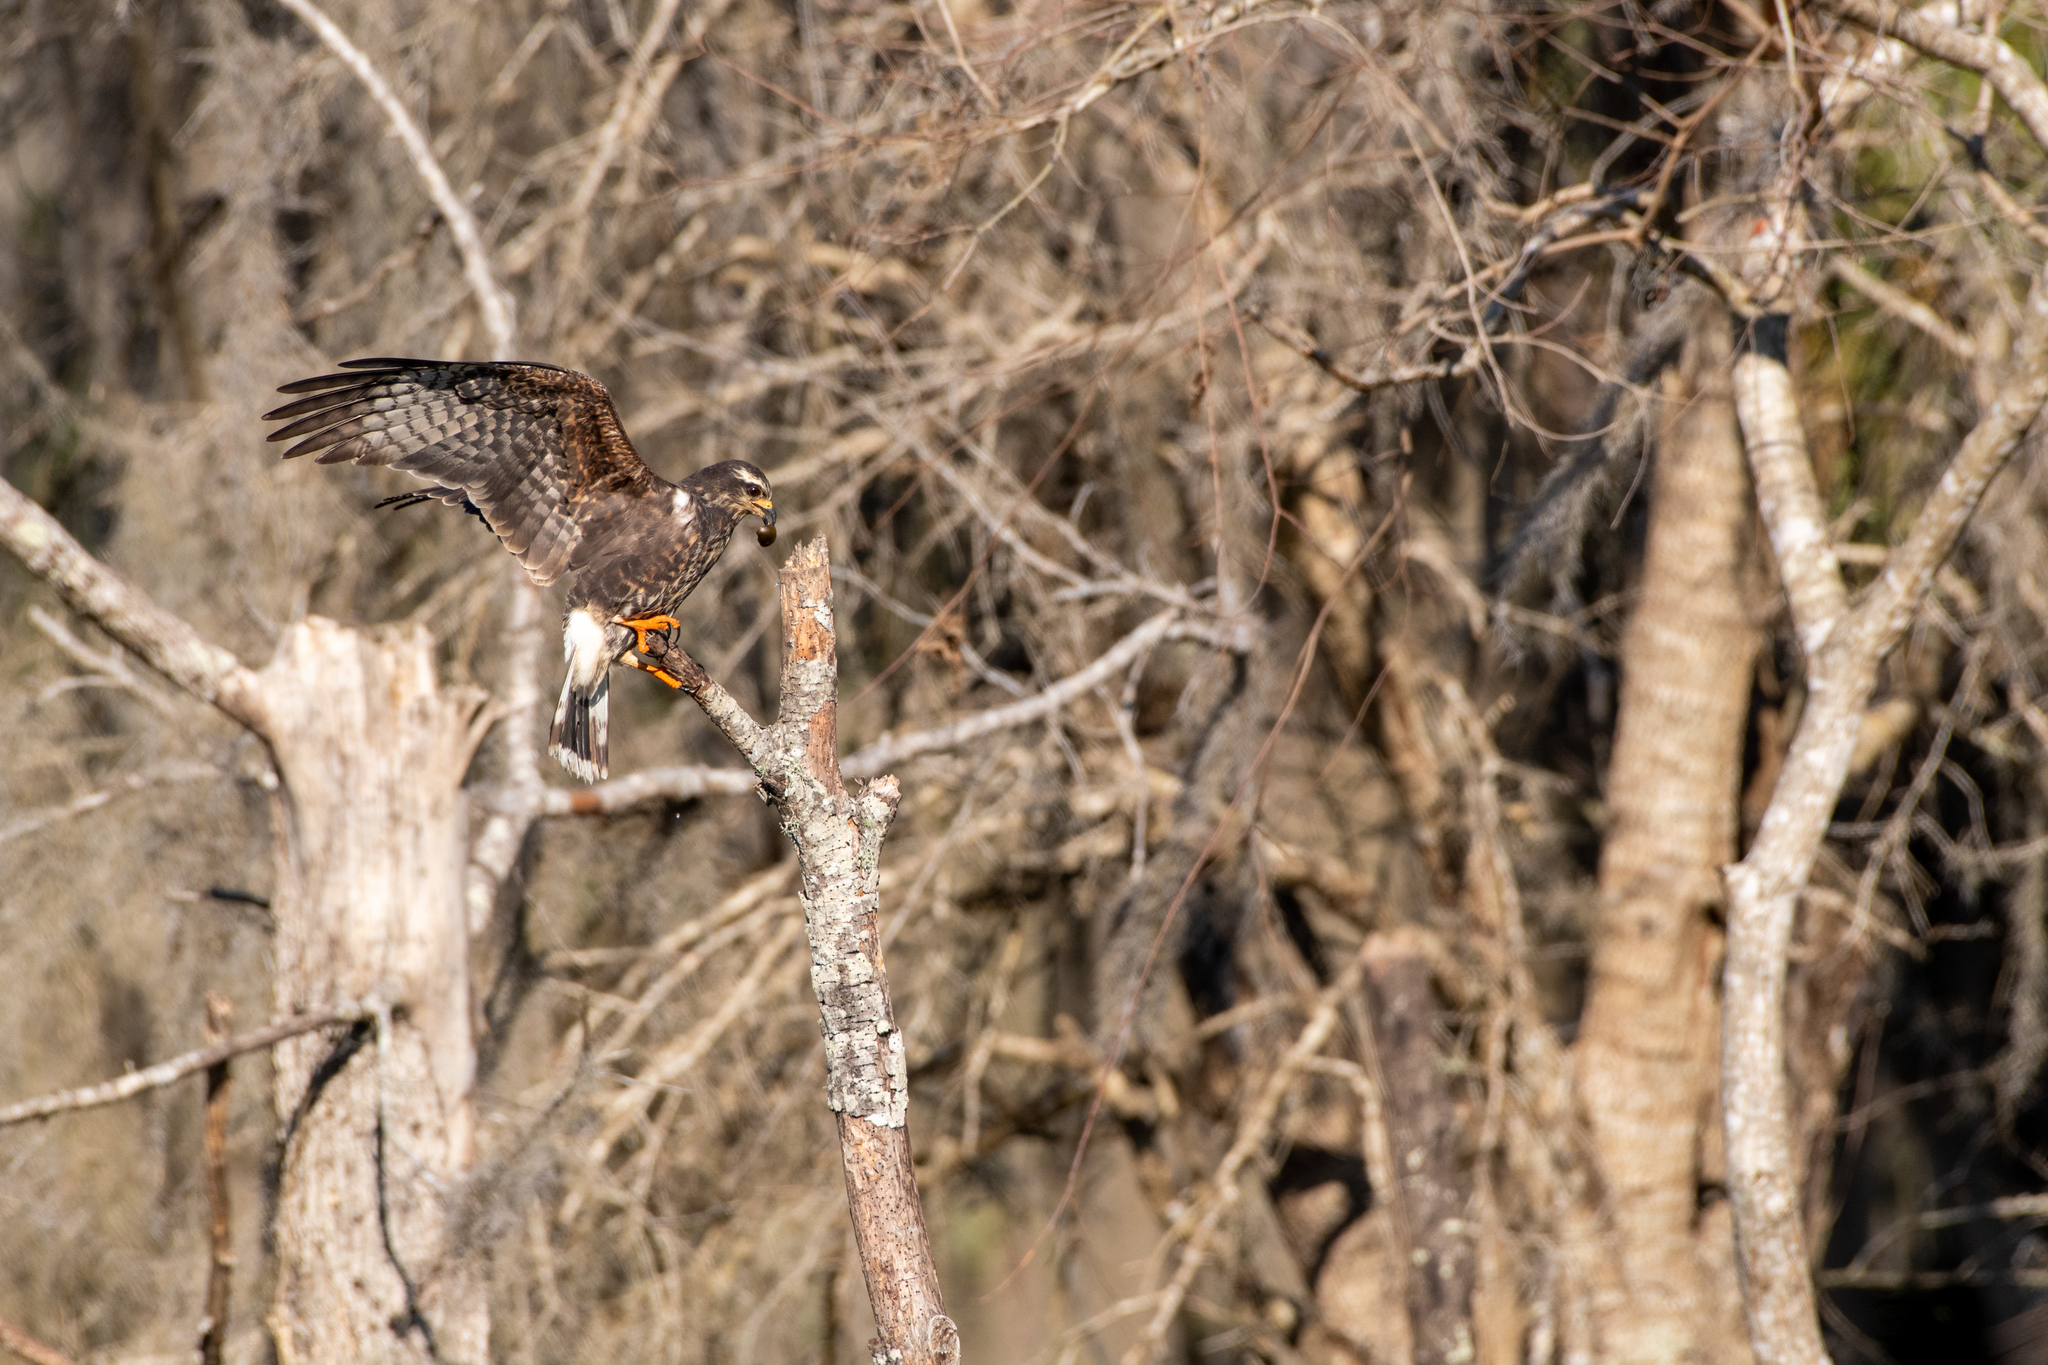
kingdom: Animalia
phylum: Chordata
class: Aves
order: Accipitriformes
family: Accipitridae
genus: Rostrhamus
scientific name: Rostrhamus sociabilis
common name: Snail kite
